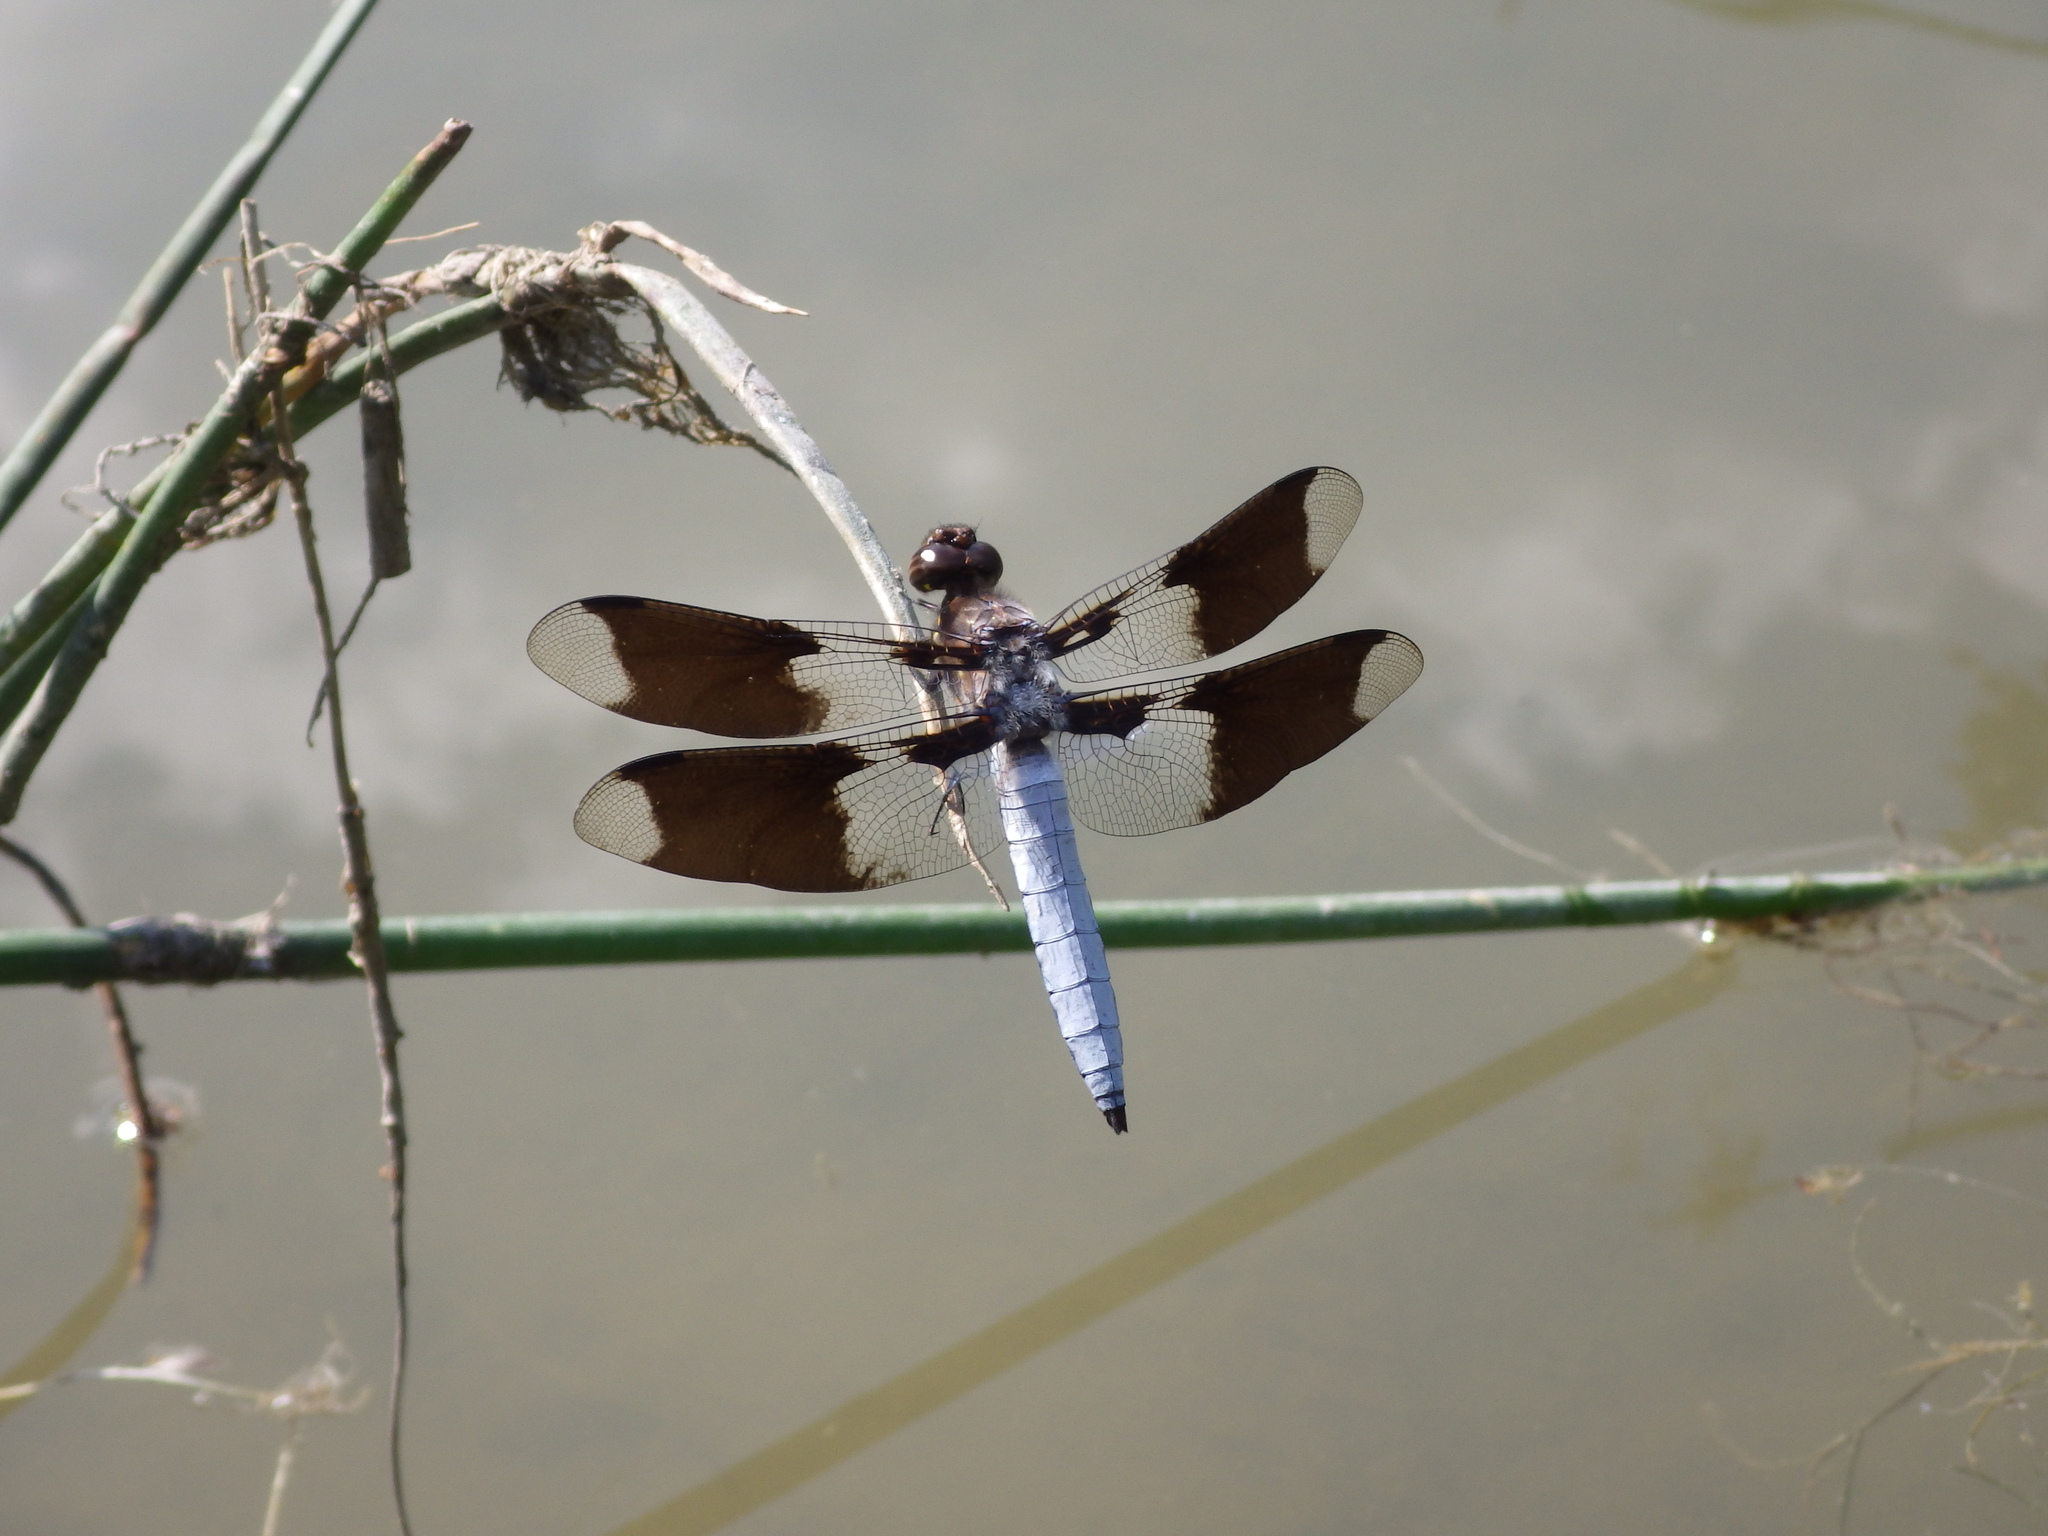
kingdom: Animalia
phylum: Arthropoda
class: Insecta
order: Odonata
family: Libellulidae
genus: Plathemis
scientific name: Plathemis lydia
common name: Common whitetail
